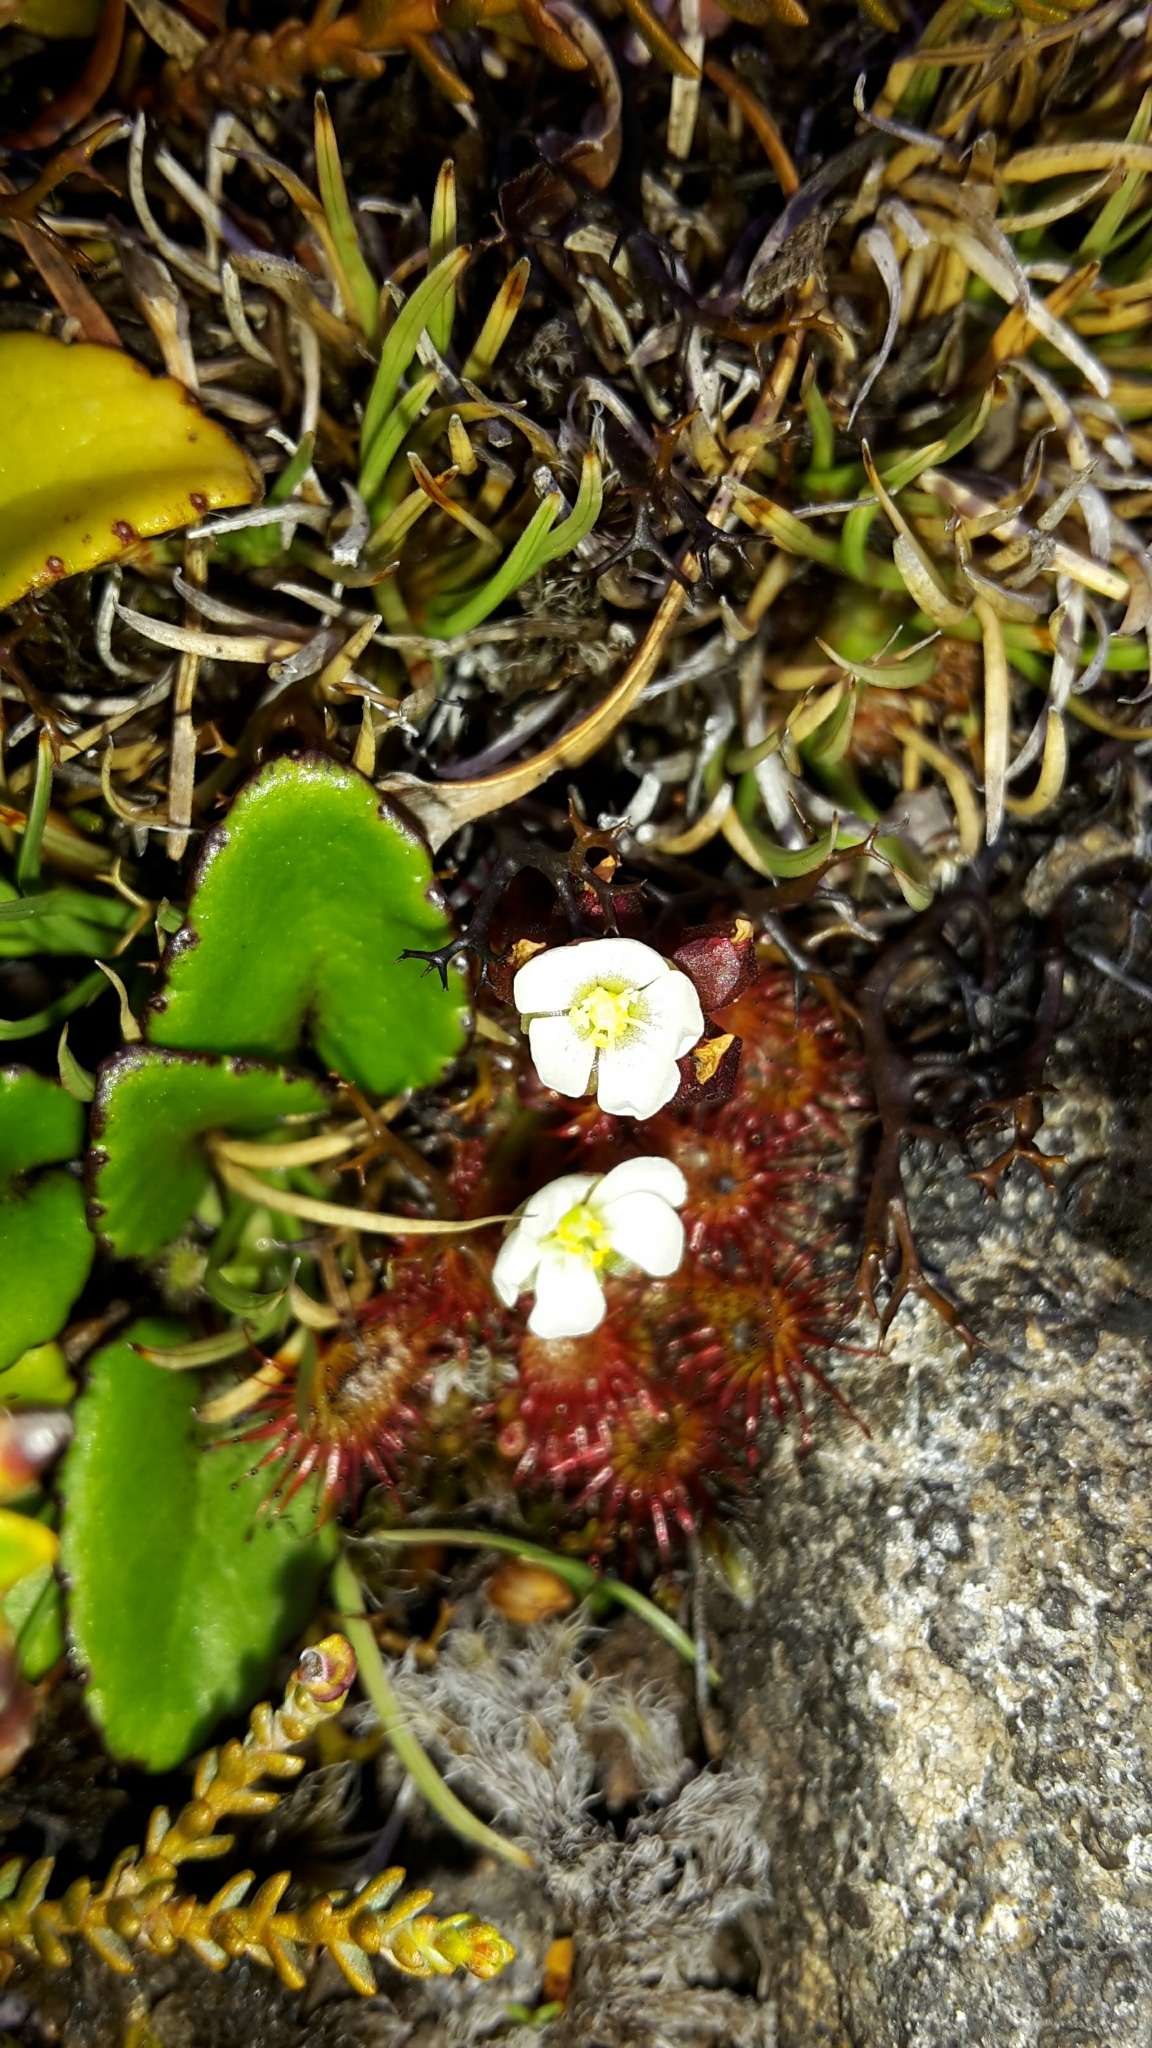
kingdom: Plantae
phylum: Tracheophyta
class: Magnoliopsida
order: Caryophyllales
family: Droseraceae
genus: Drosera
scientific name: Drosera spatulata
